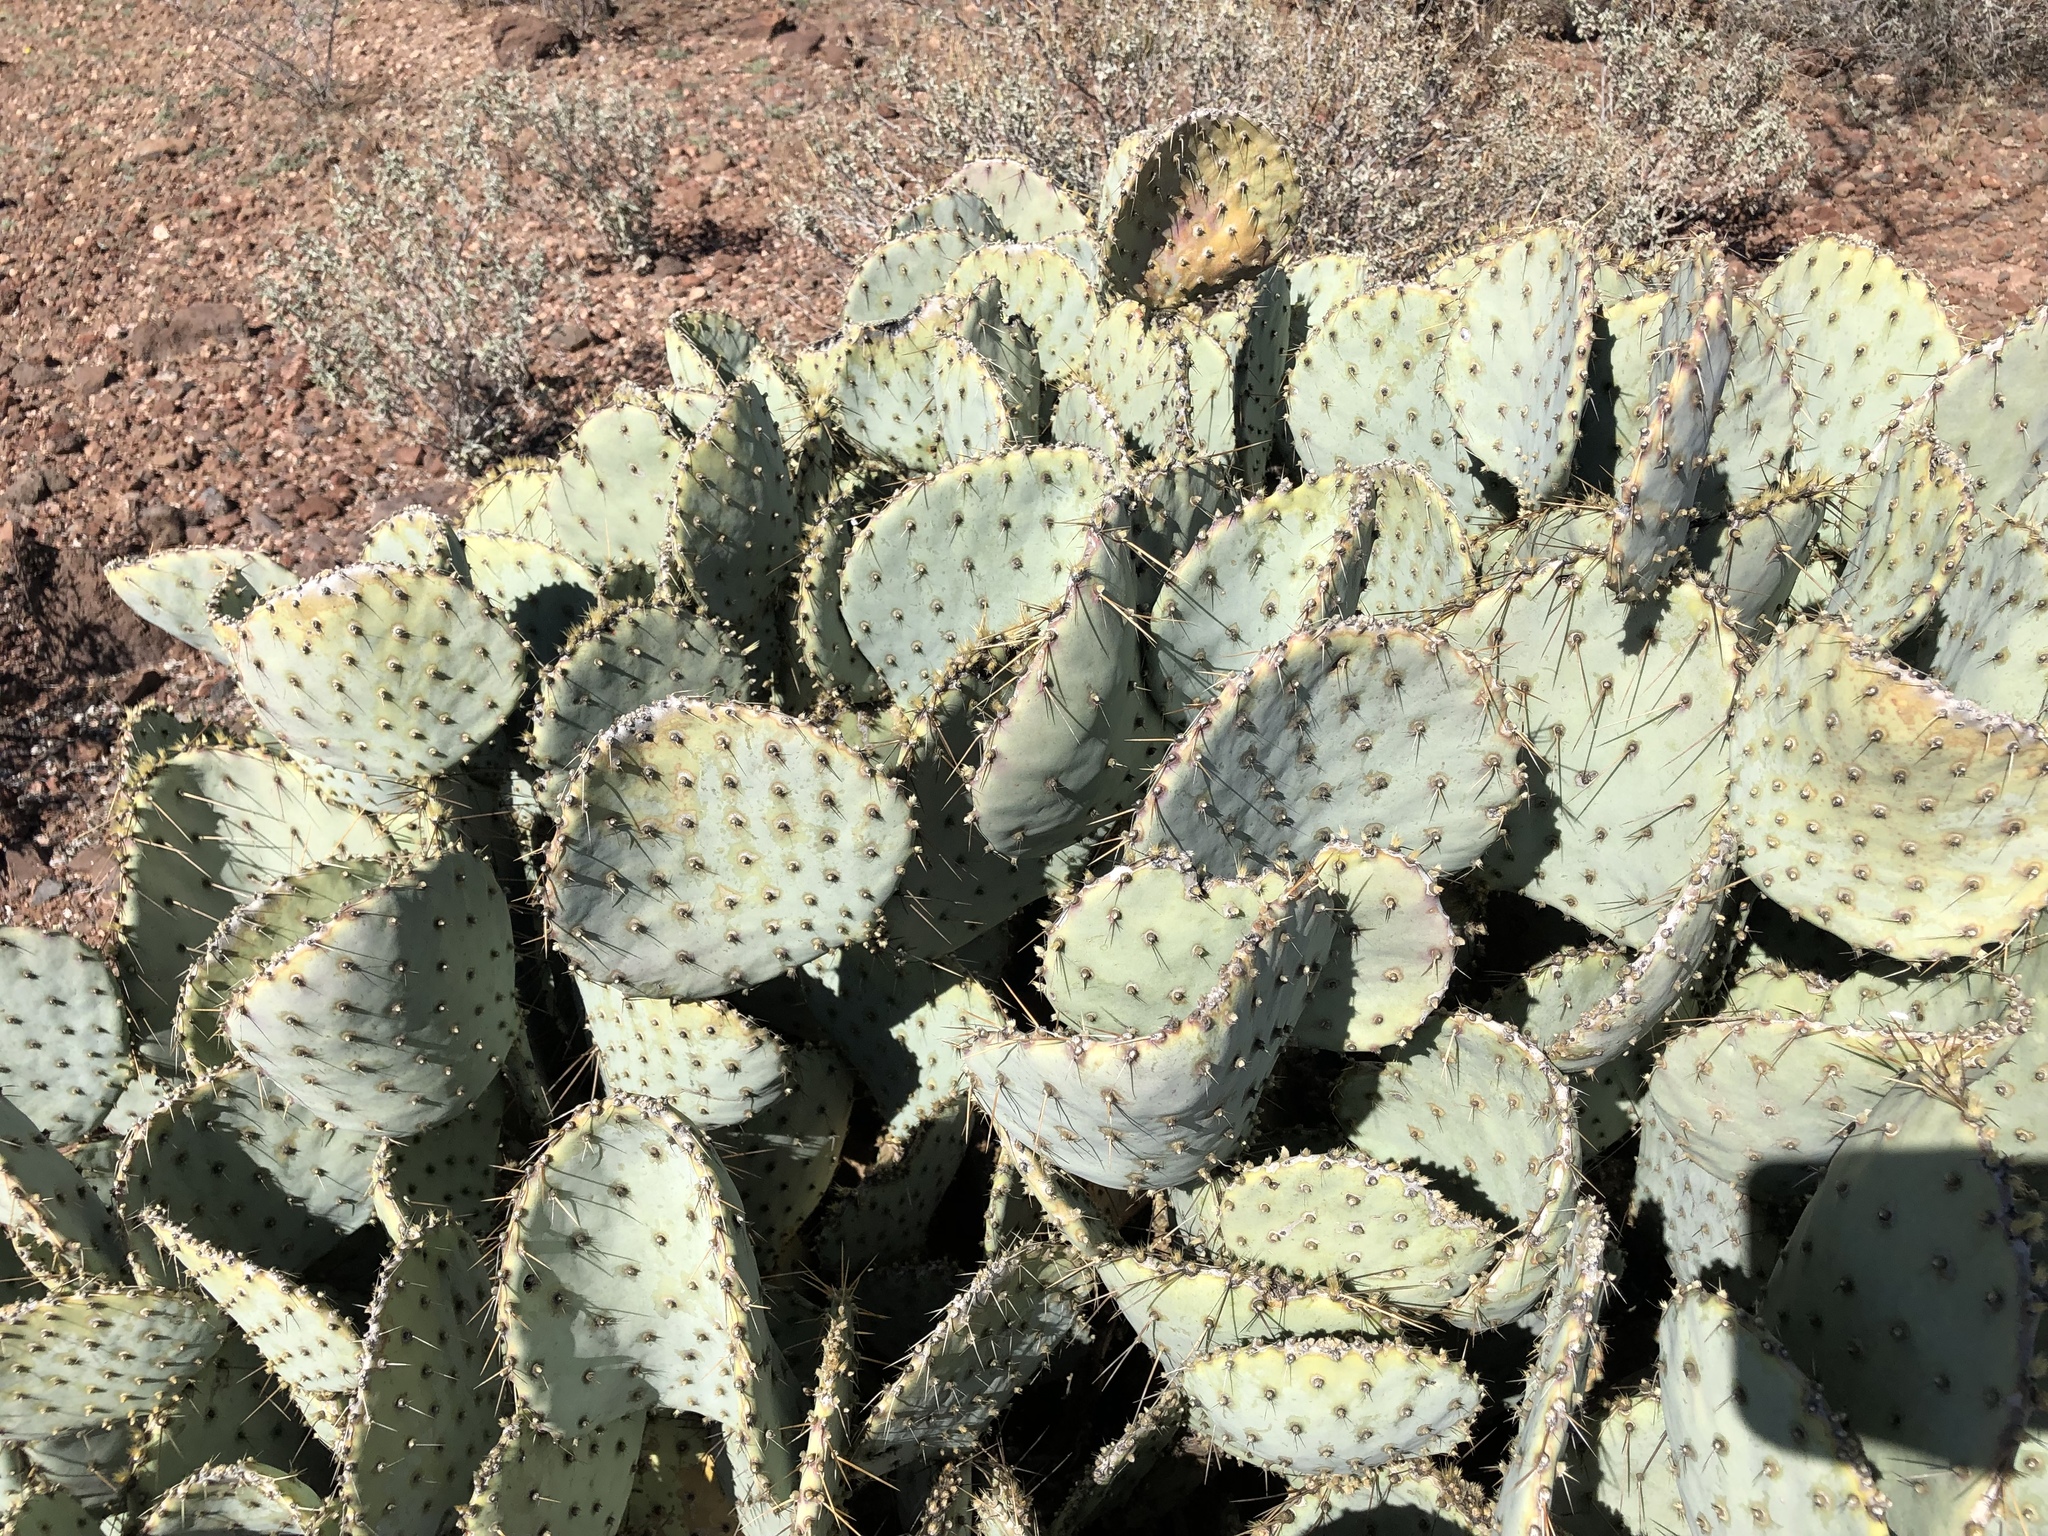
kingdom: Plantae
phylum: Tracheophyta
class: Magnoliopsida
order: Caryophyllales
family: Cactaceae
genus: Opuntia
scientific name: Opuntia gosseliniana
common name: Violet prickly-pear
